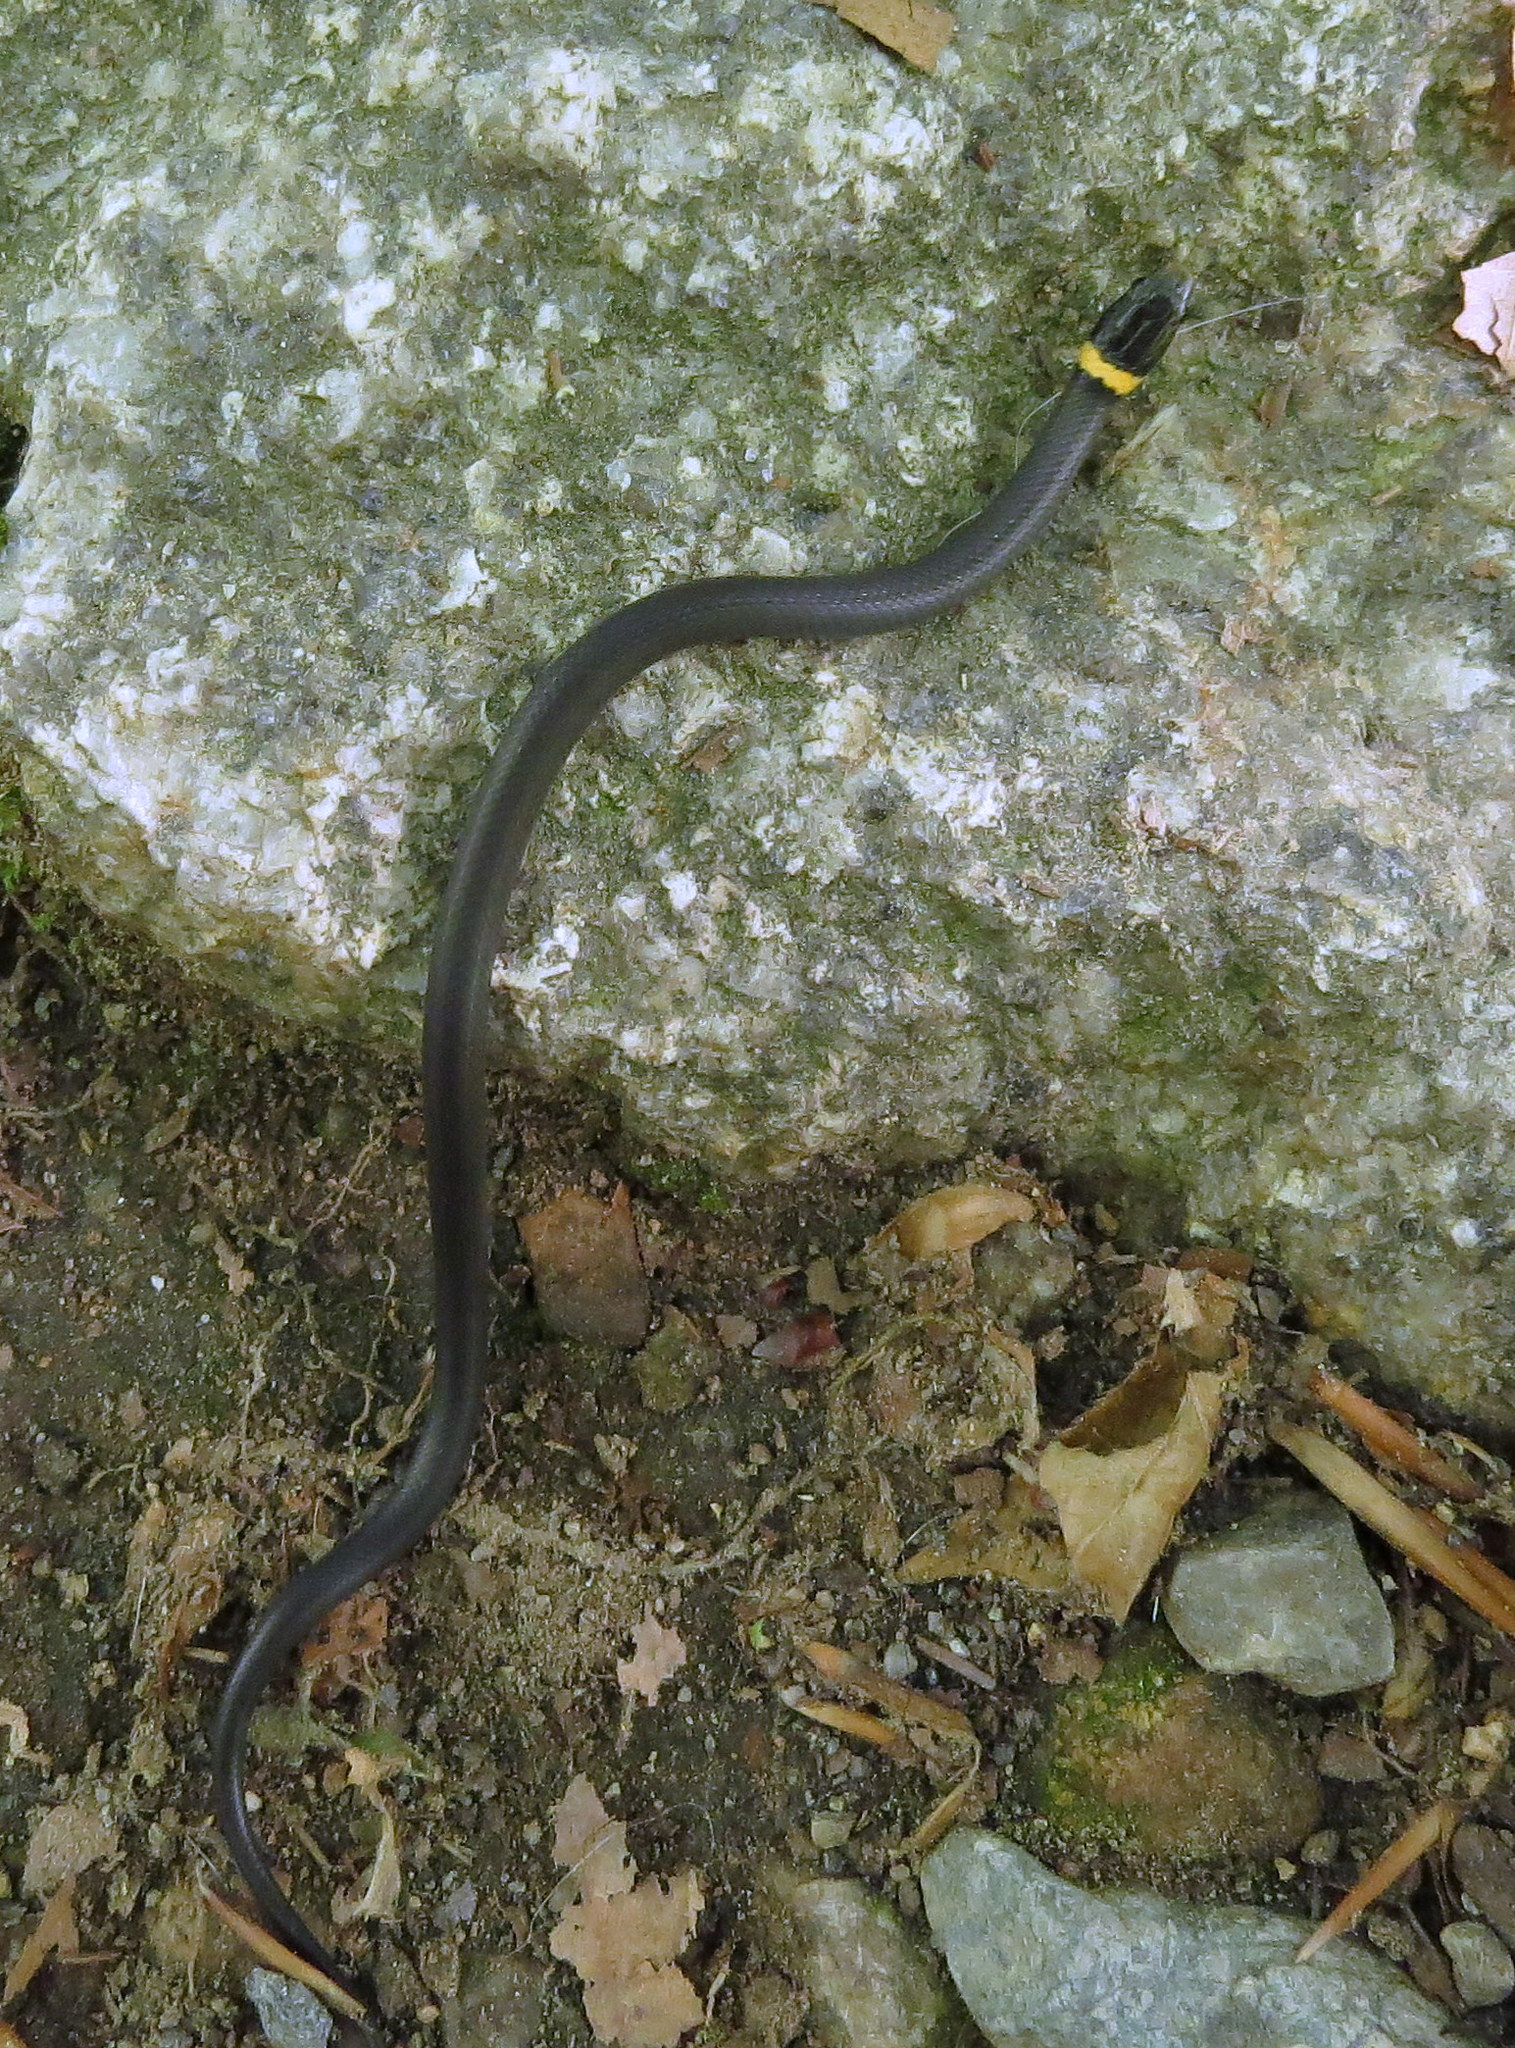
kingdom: Animalia
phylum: Chordata
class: Squamata
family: Colubridae
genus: Diadophis
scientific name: Diadophis punctatus
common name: Ringneck snake
